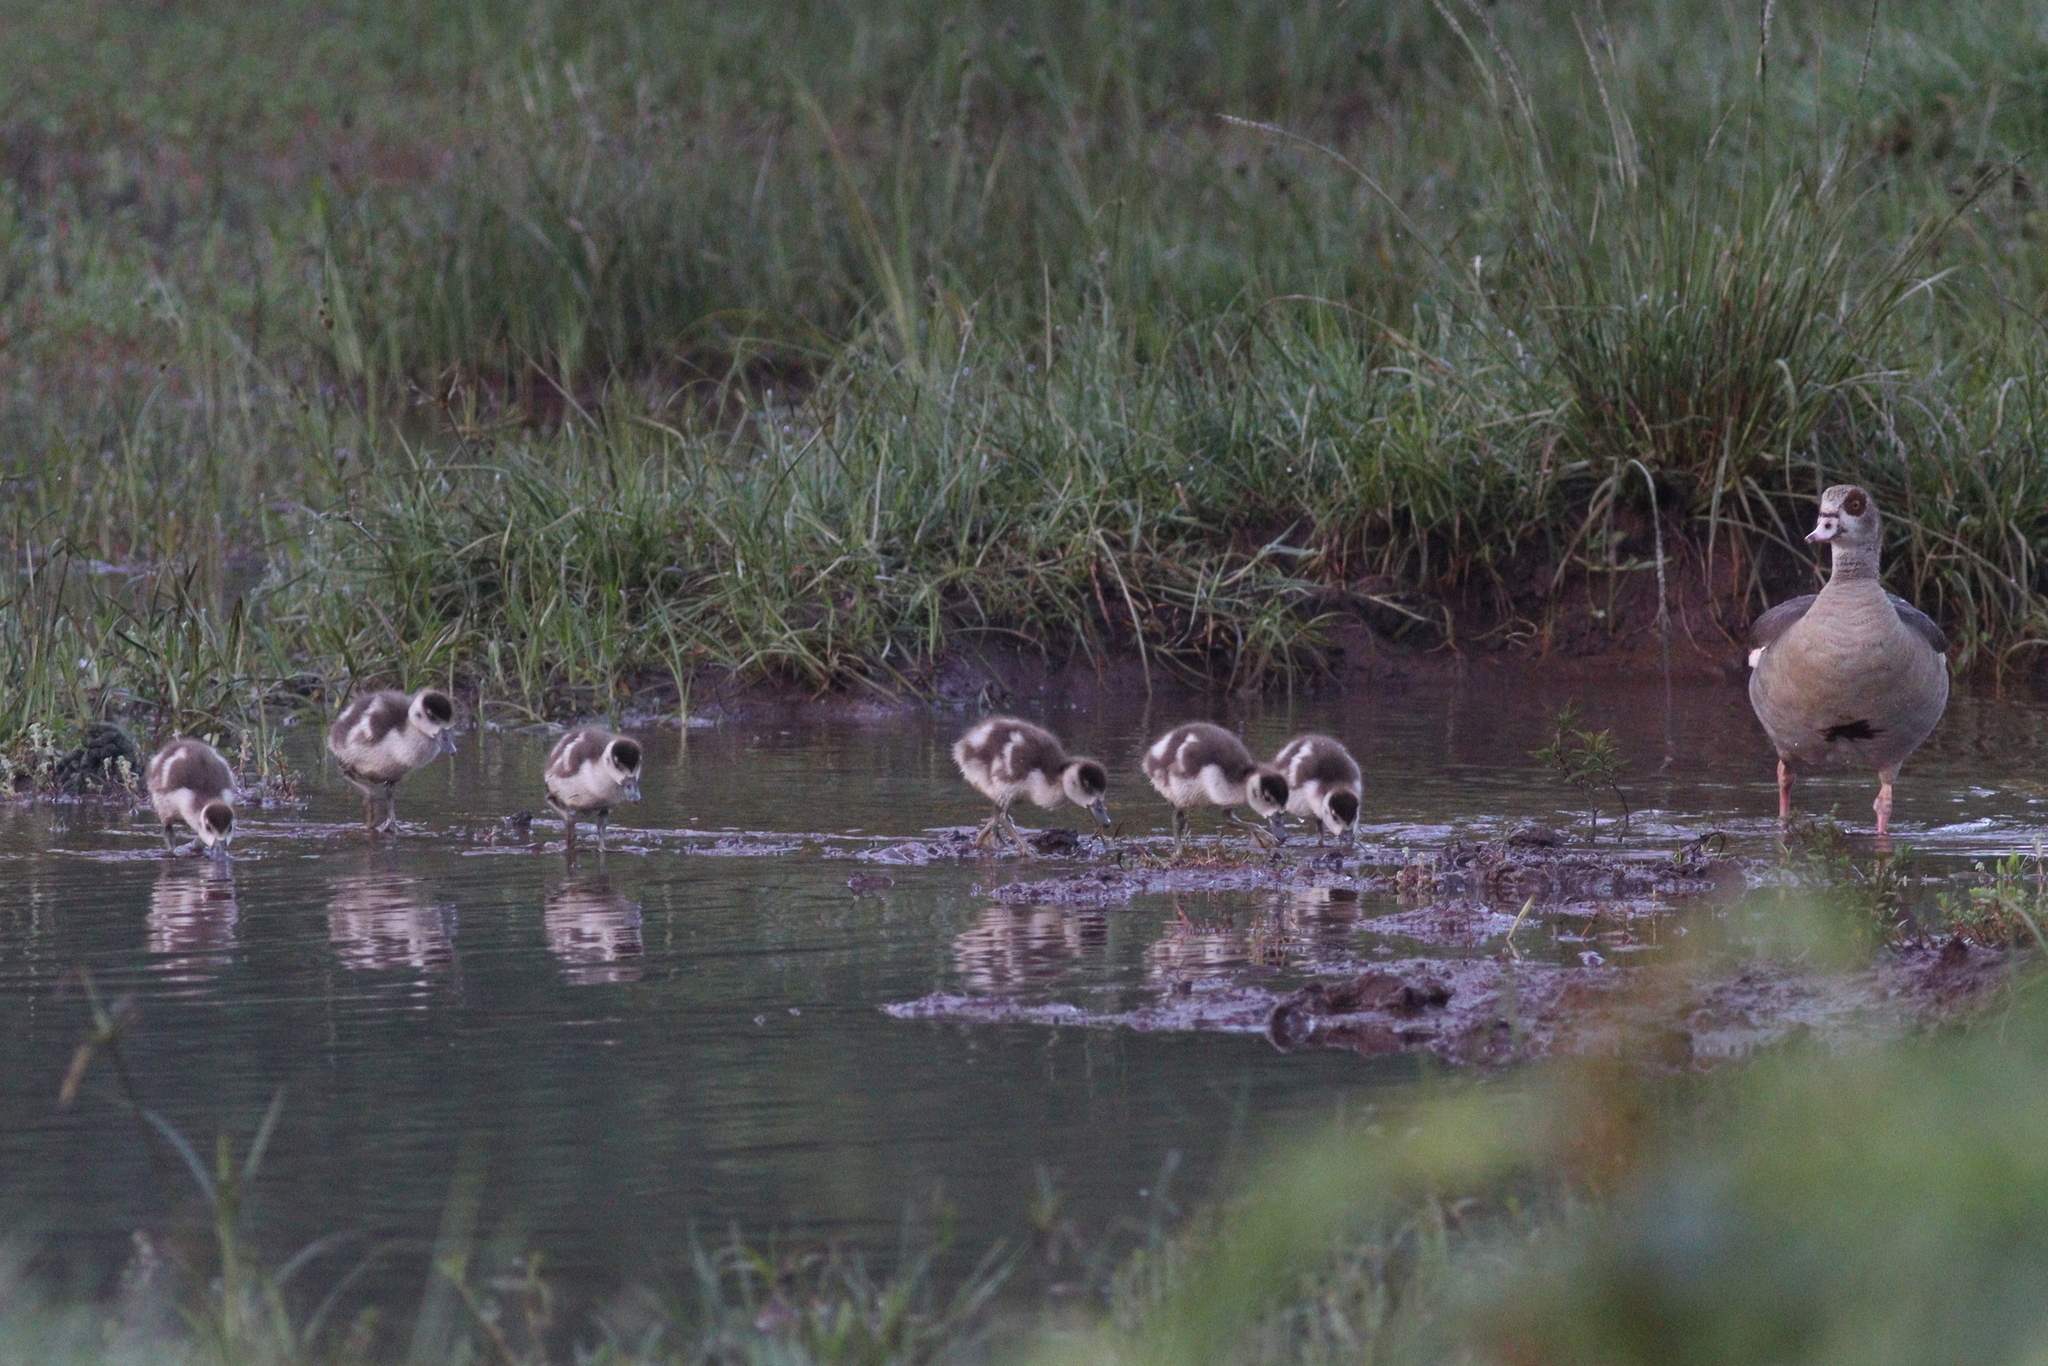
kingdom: Animalia
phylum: Chordata
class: Aves
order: Anseriformes
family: Anatidae
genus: Alopochen
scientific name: Alopochen aegyptiaca
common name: Egyptian goose
